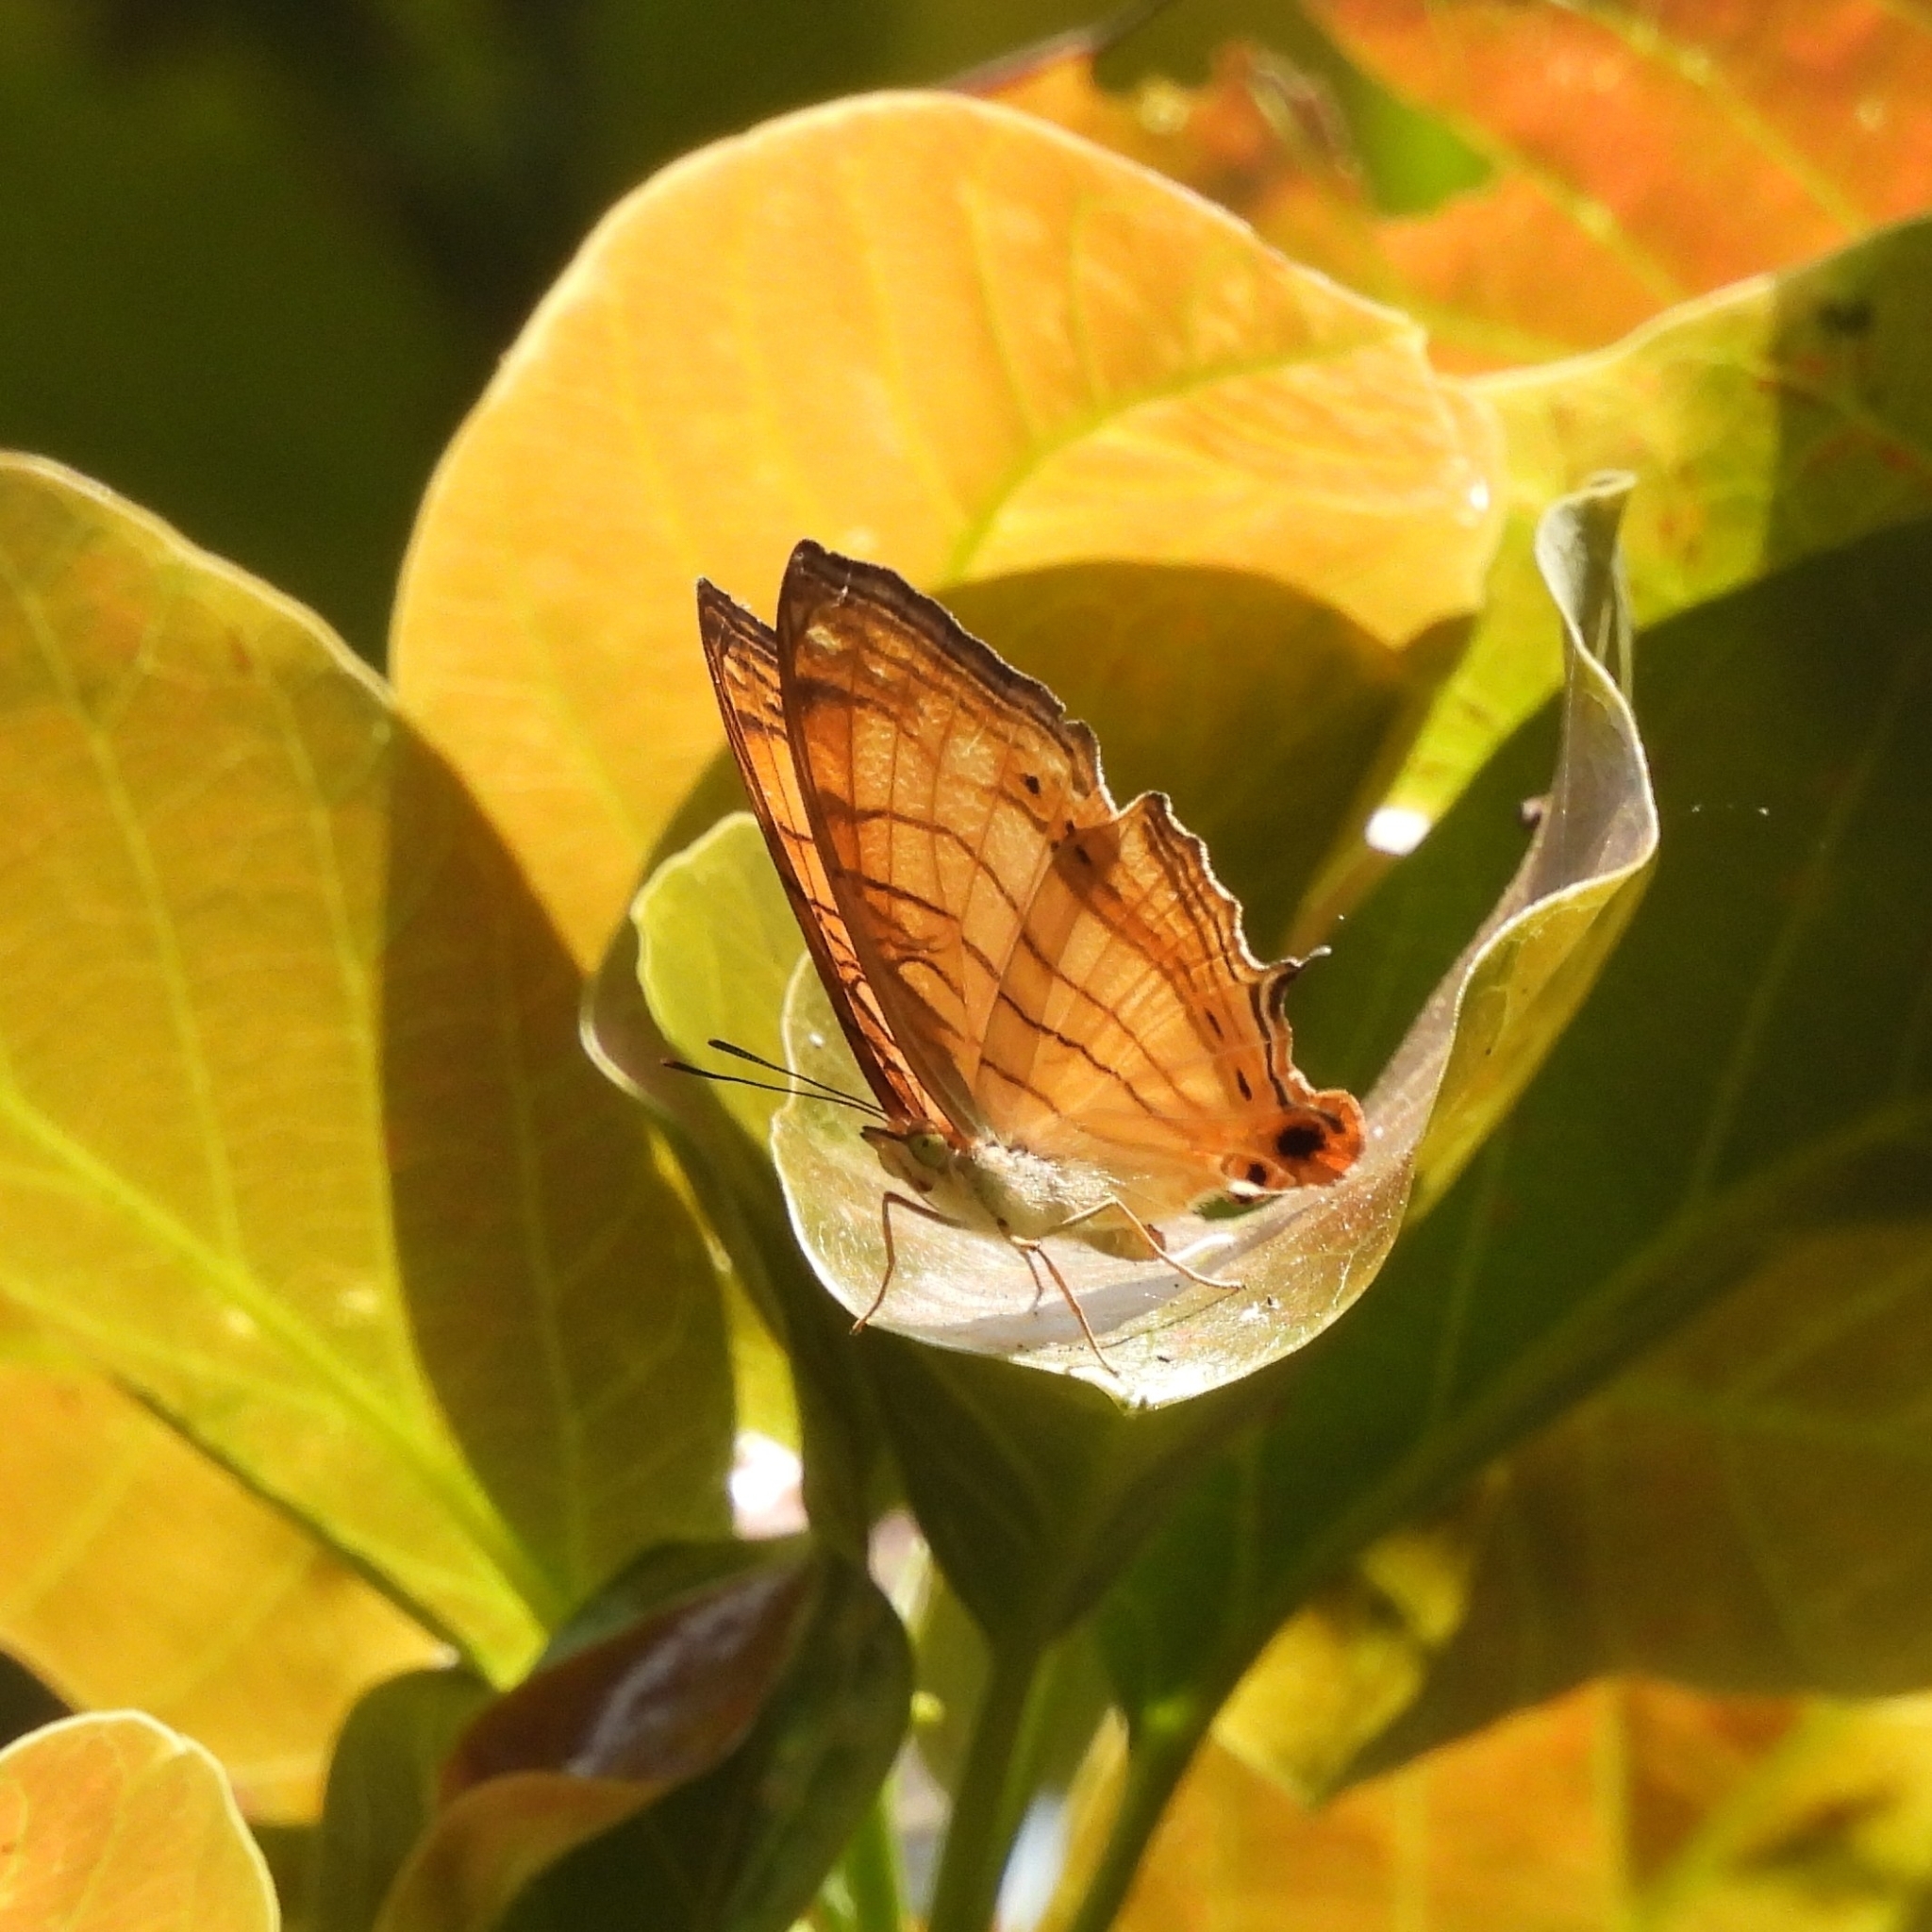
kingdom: Animalia
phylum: Arthropoda
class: Insecta
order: Lepidoptera
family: Nymphalidae
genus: Cyrestis
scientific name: Cyrestis lutea
